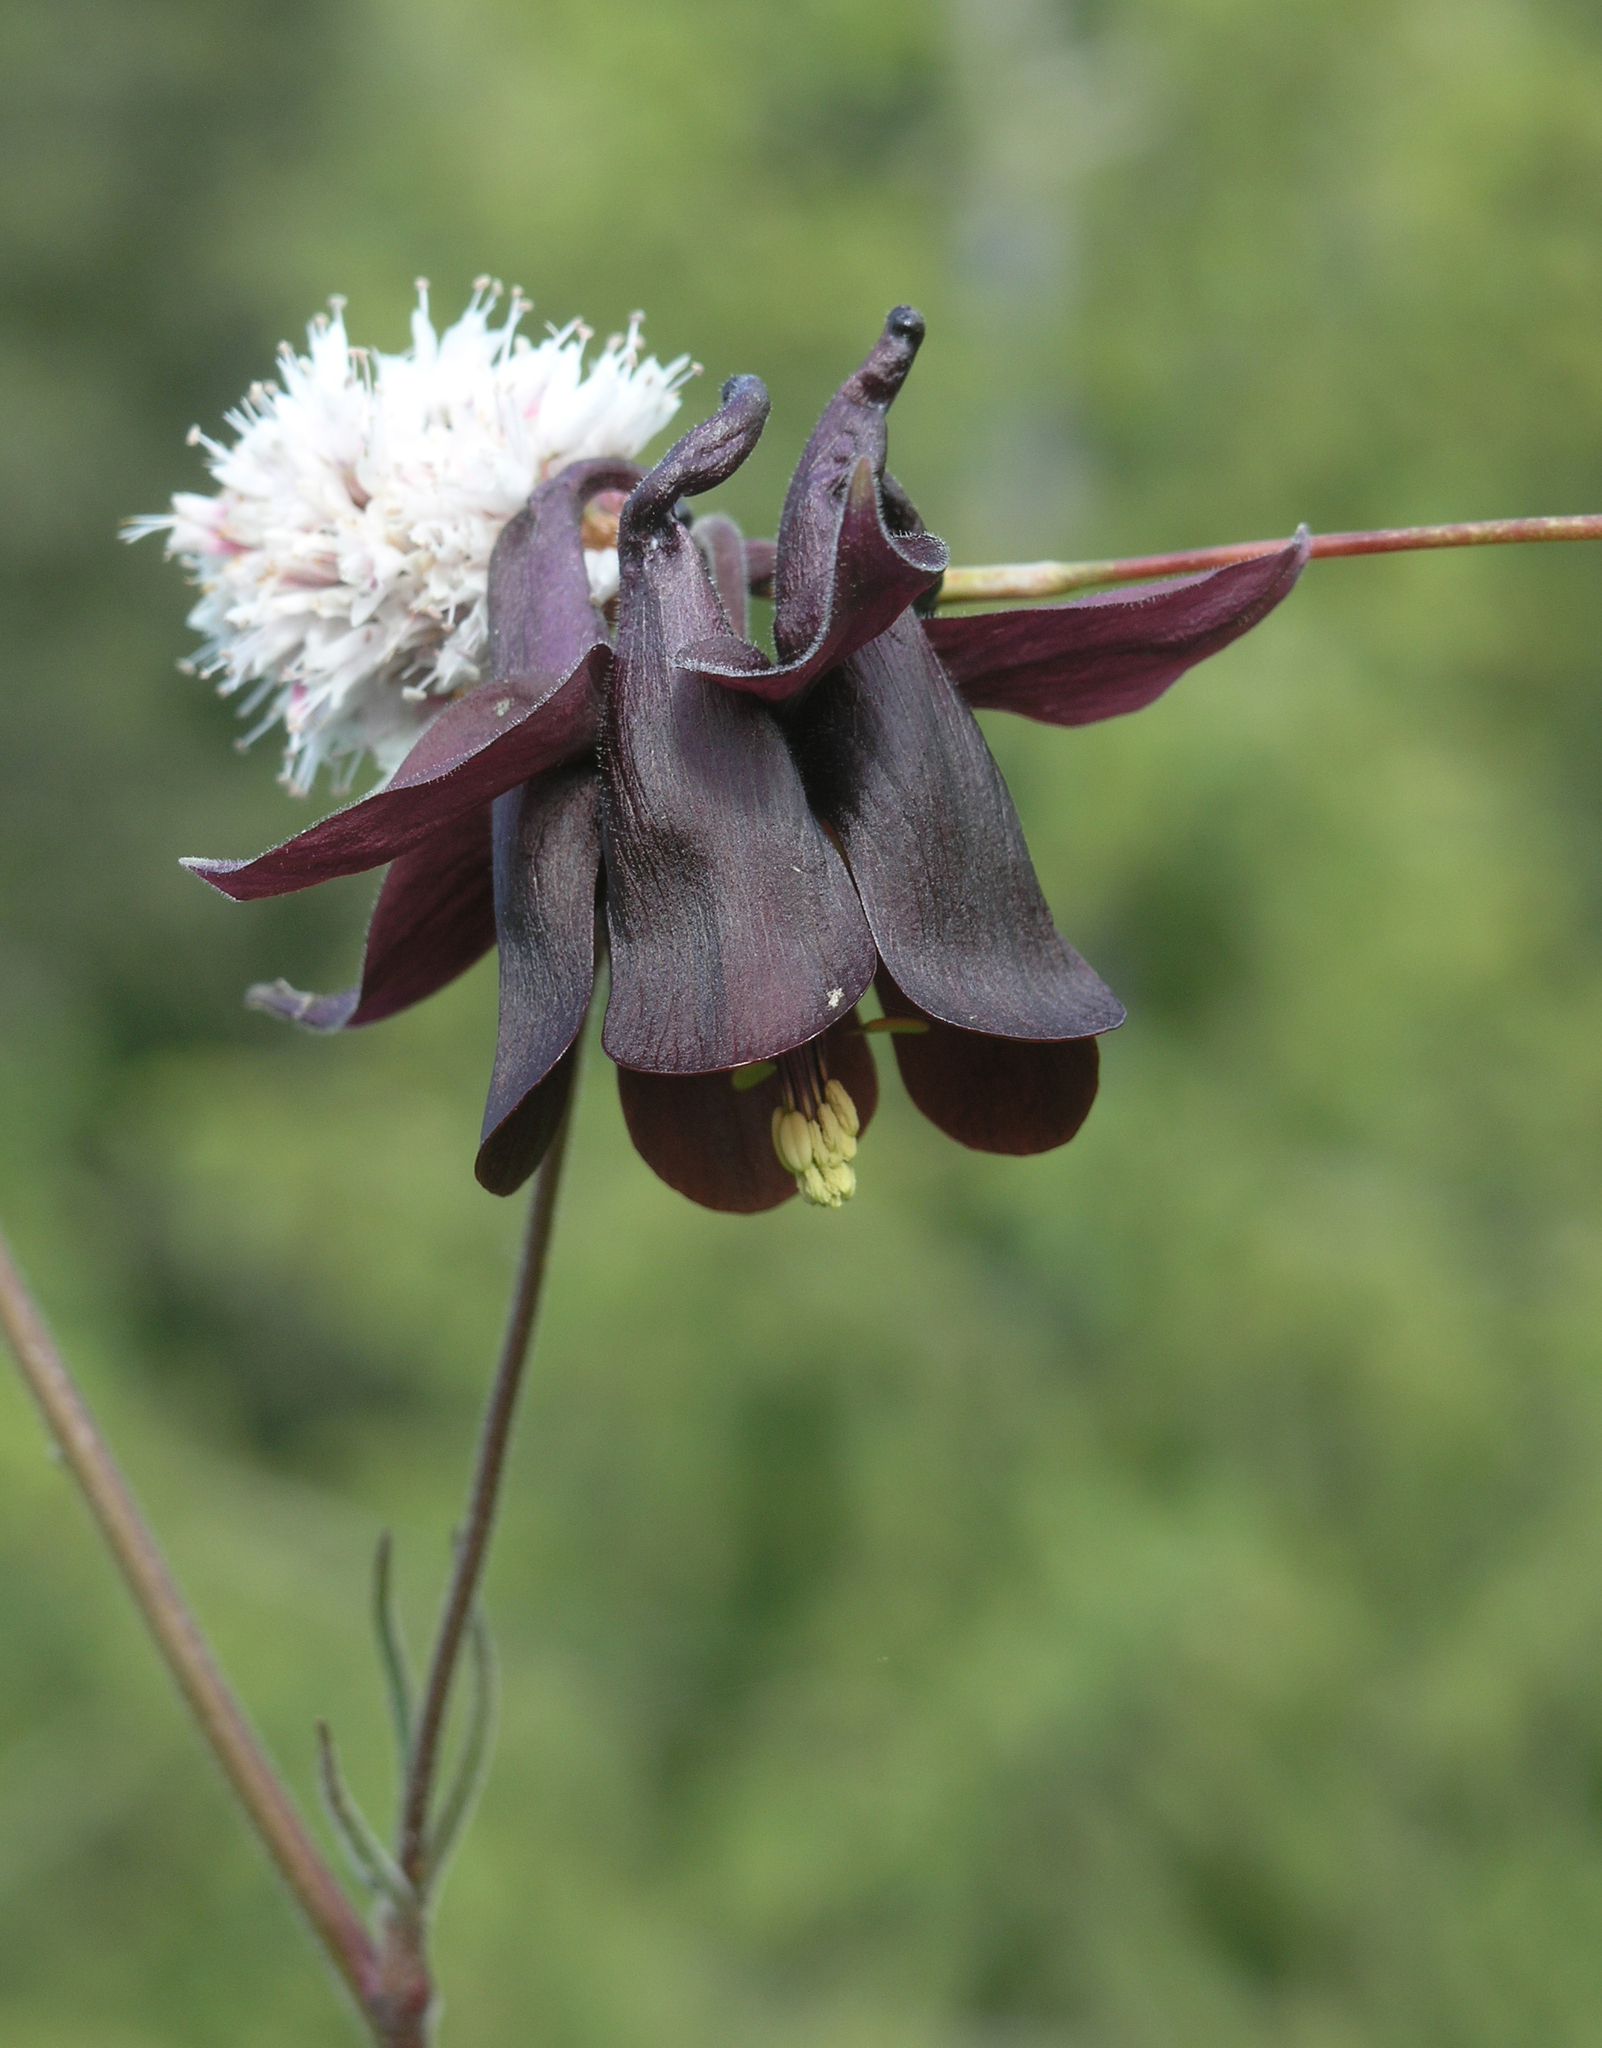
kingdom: Plantae
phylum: Tracheophyta
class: Magnoliopsida
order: Ranunculales
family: Ranunculaceae
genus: Aquilegia
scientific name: Aquilegia atrovinosa
